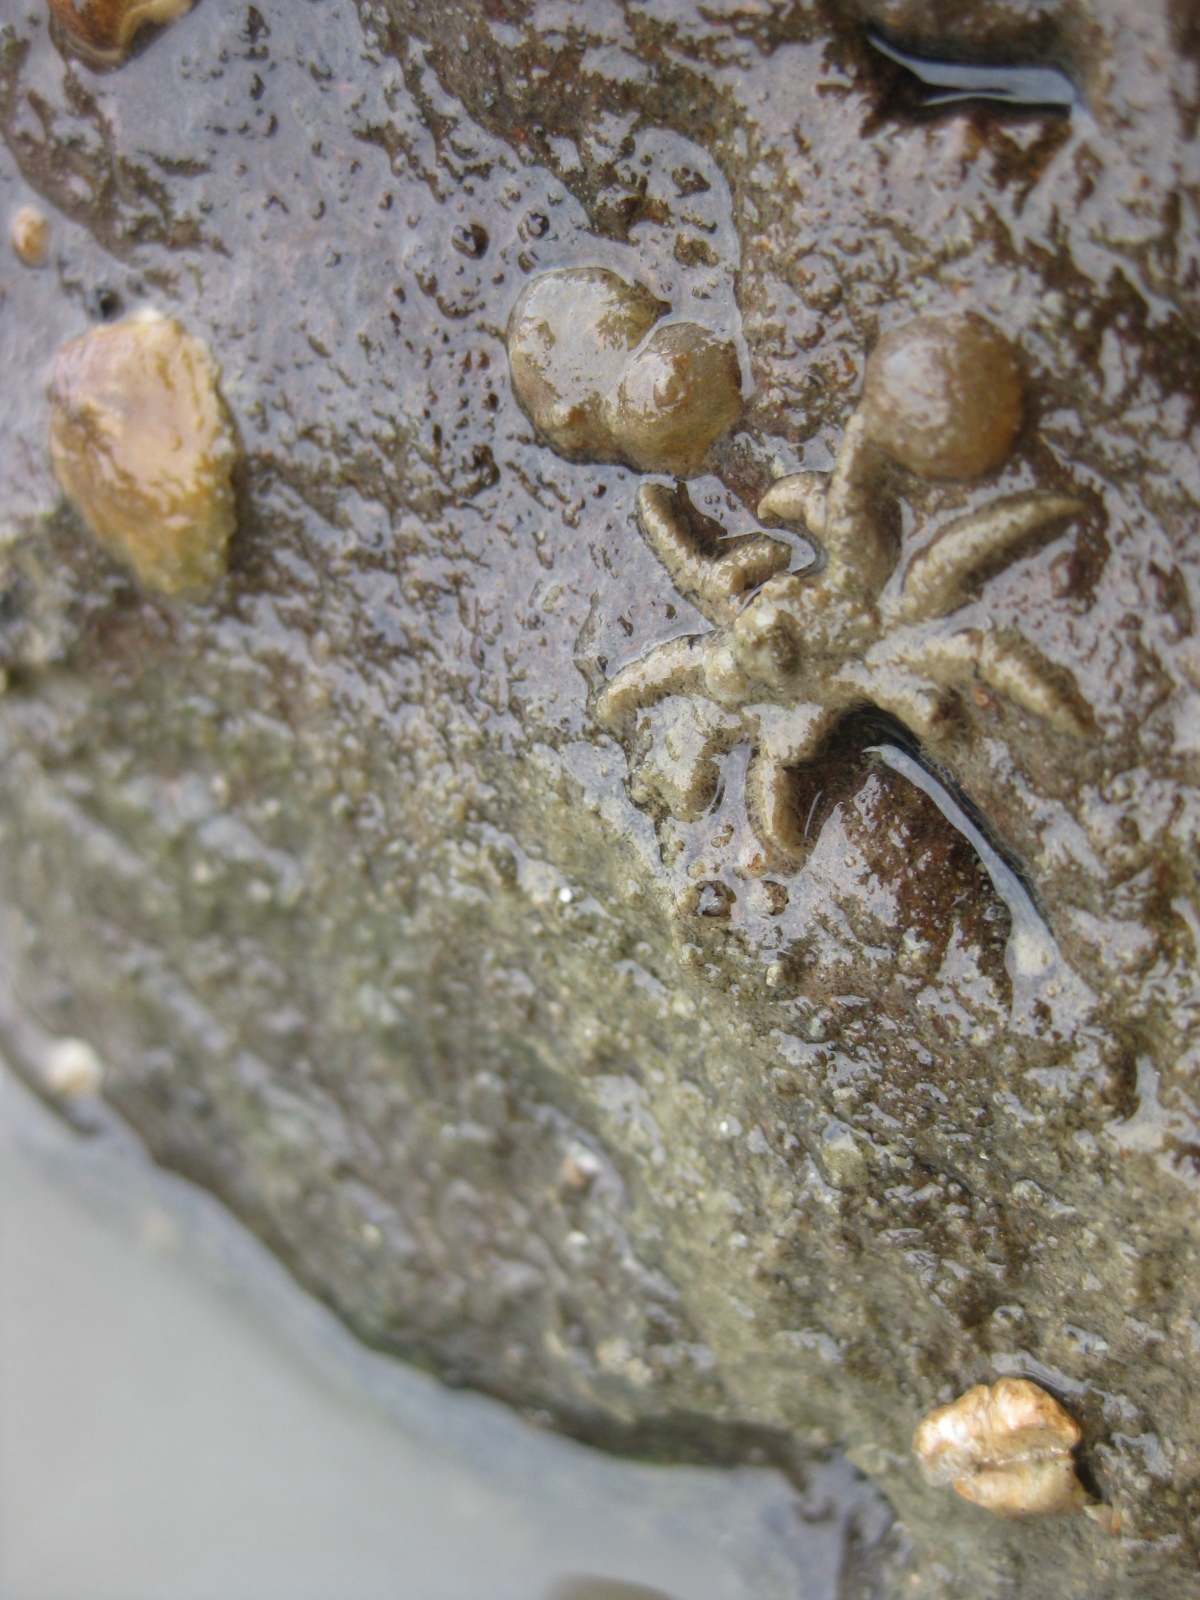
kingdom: Animalia
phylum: Arthropoda
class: Malacostraca
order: Decapoda
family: Hymenosomatidae
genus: Neohymenicus
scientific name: Neohymenicus pubescens
